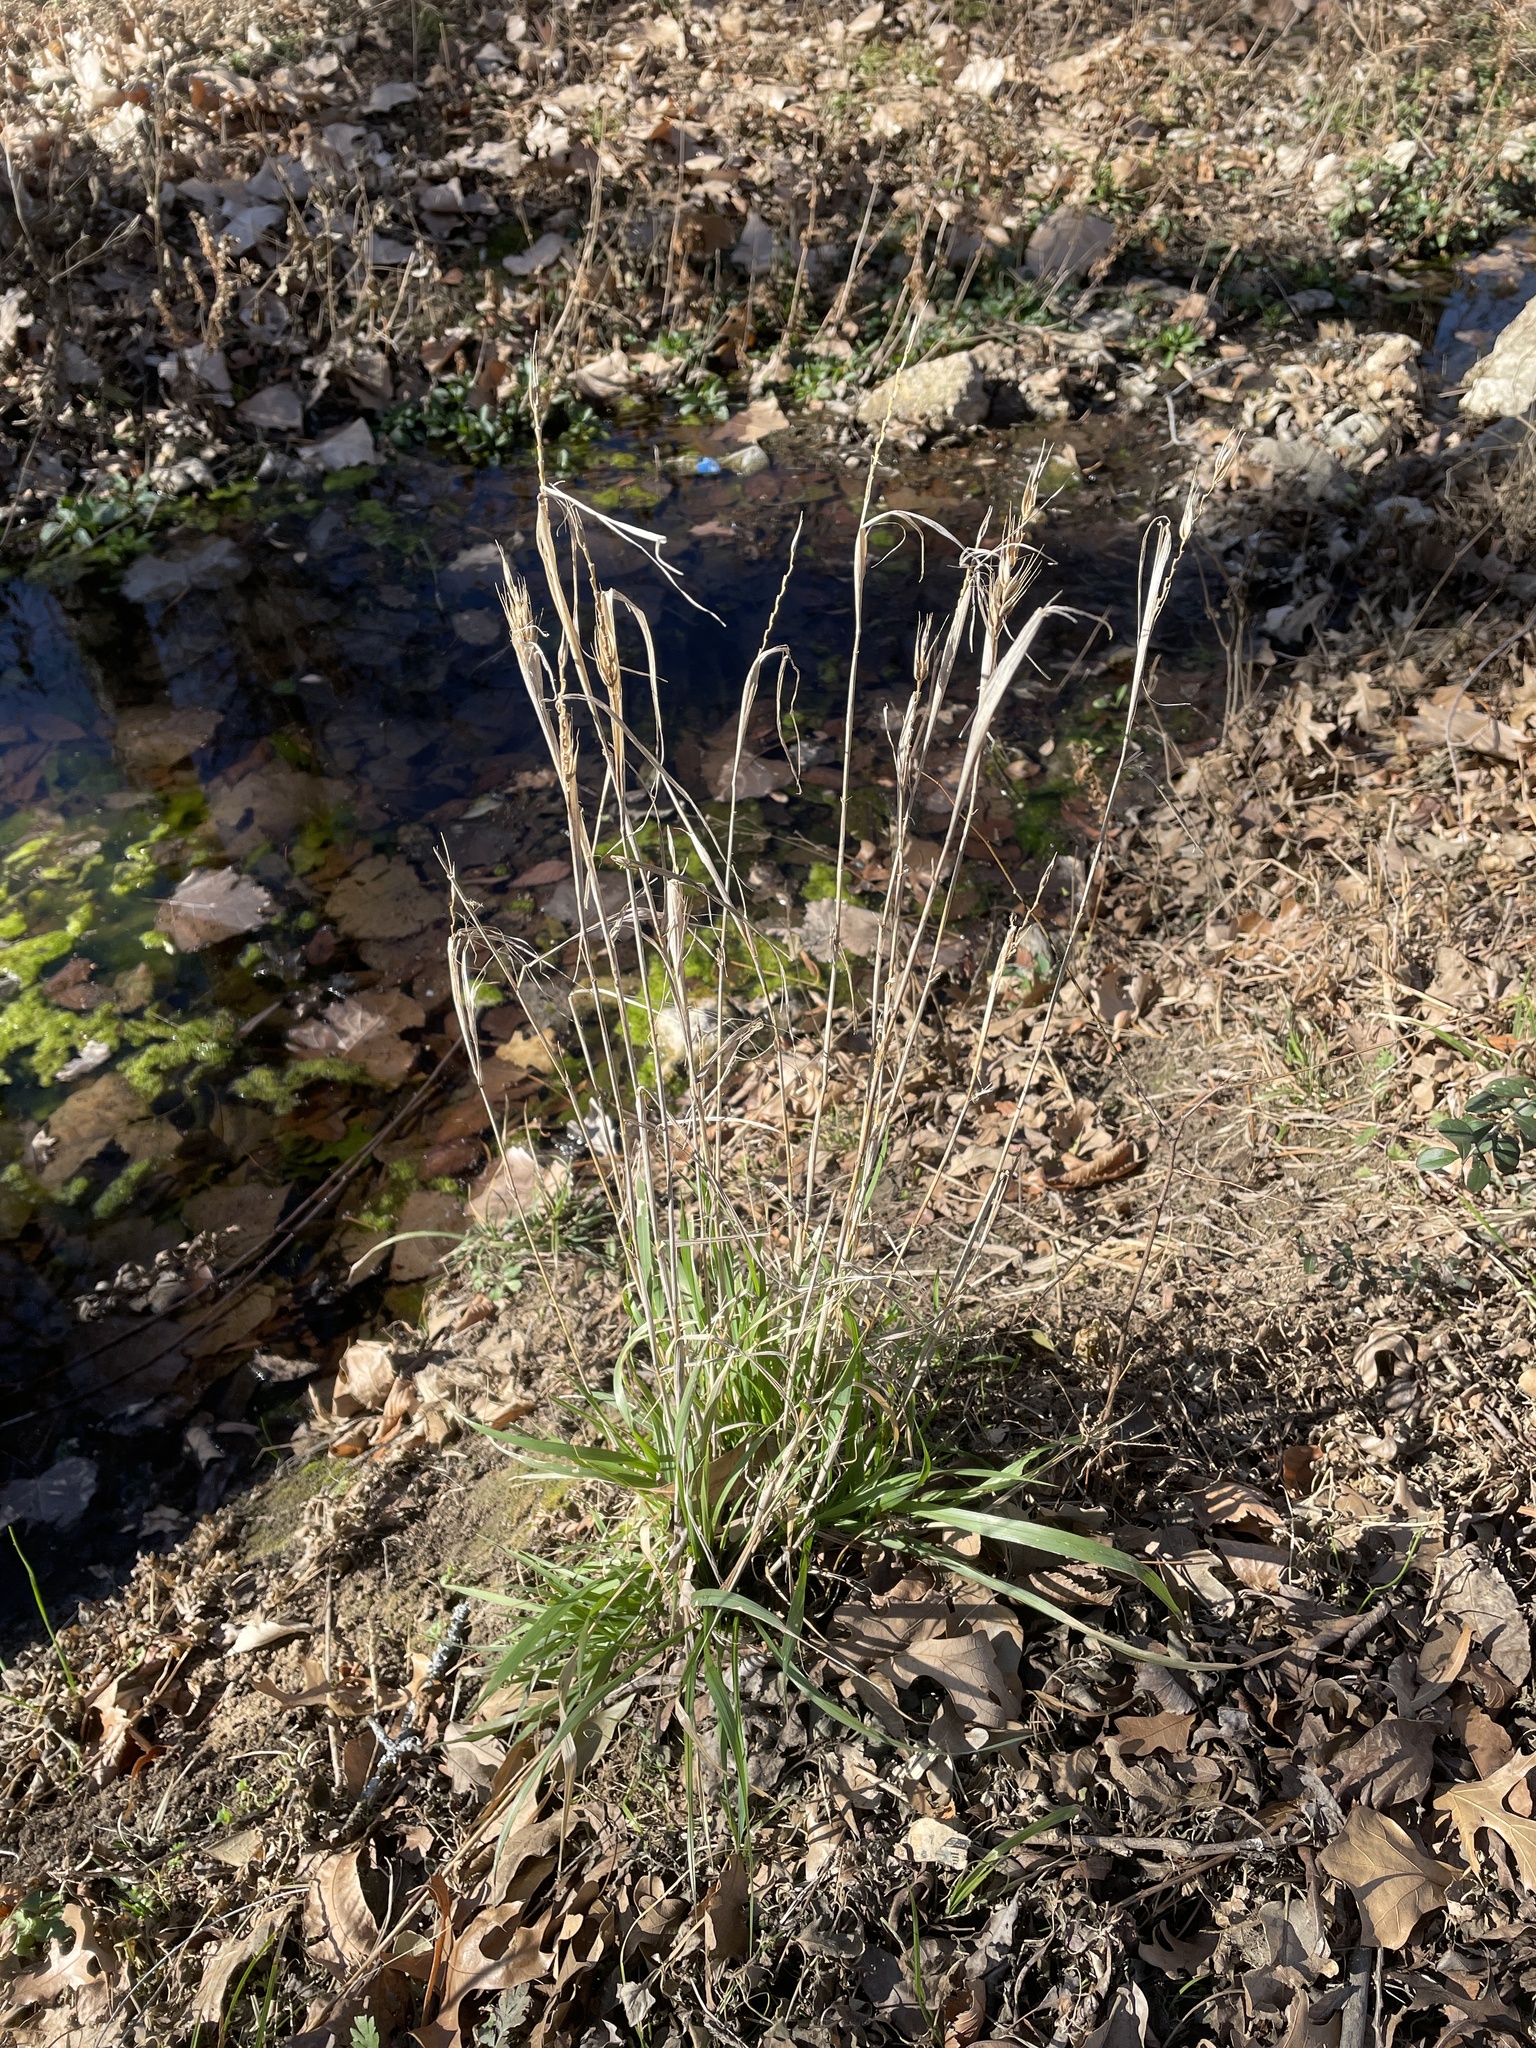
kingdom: Plantae
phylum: Tracheophyta
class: Liliopsida
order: Poales
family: Poaceae
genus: Elymus
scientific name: Elymus virginicus
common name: Common eastern wildrye
